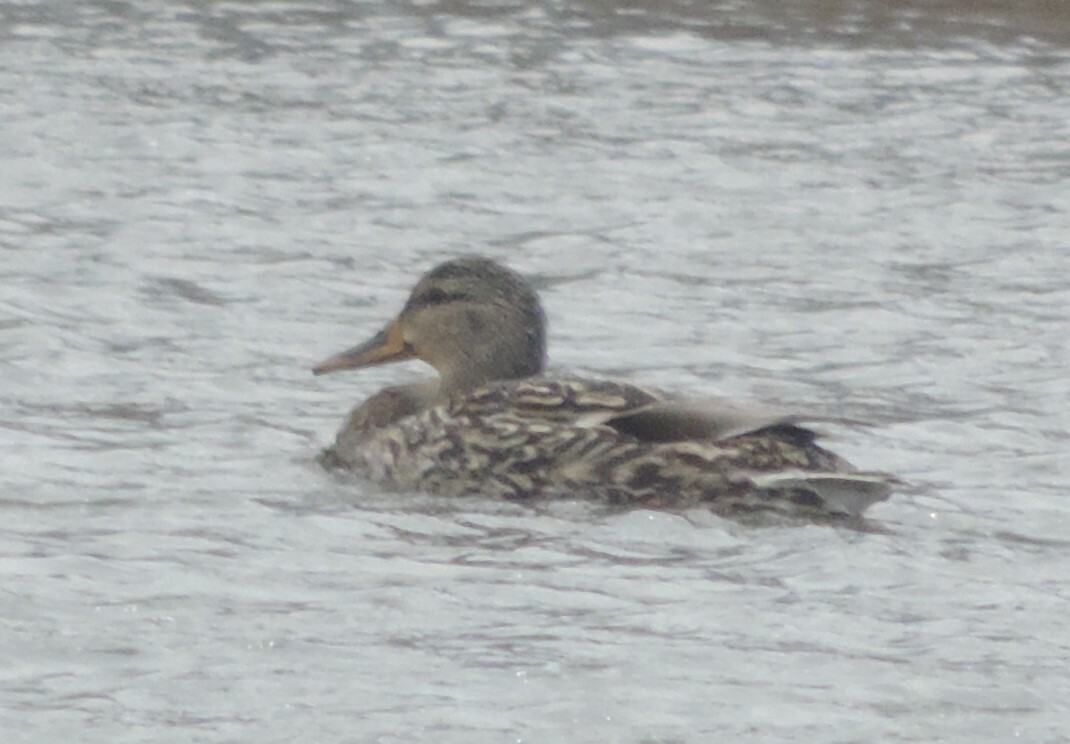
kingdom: Animalia
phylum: Chordata
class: Aves
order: Anseriformes
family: Anatidae
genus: Anas
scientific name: Anas platyrhynchos
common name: Mallard
